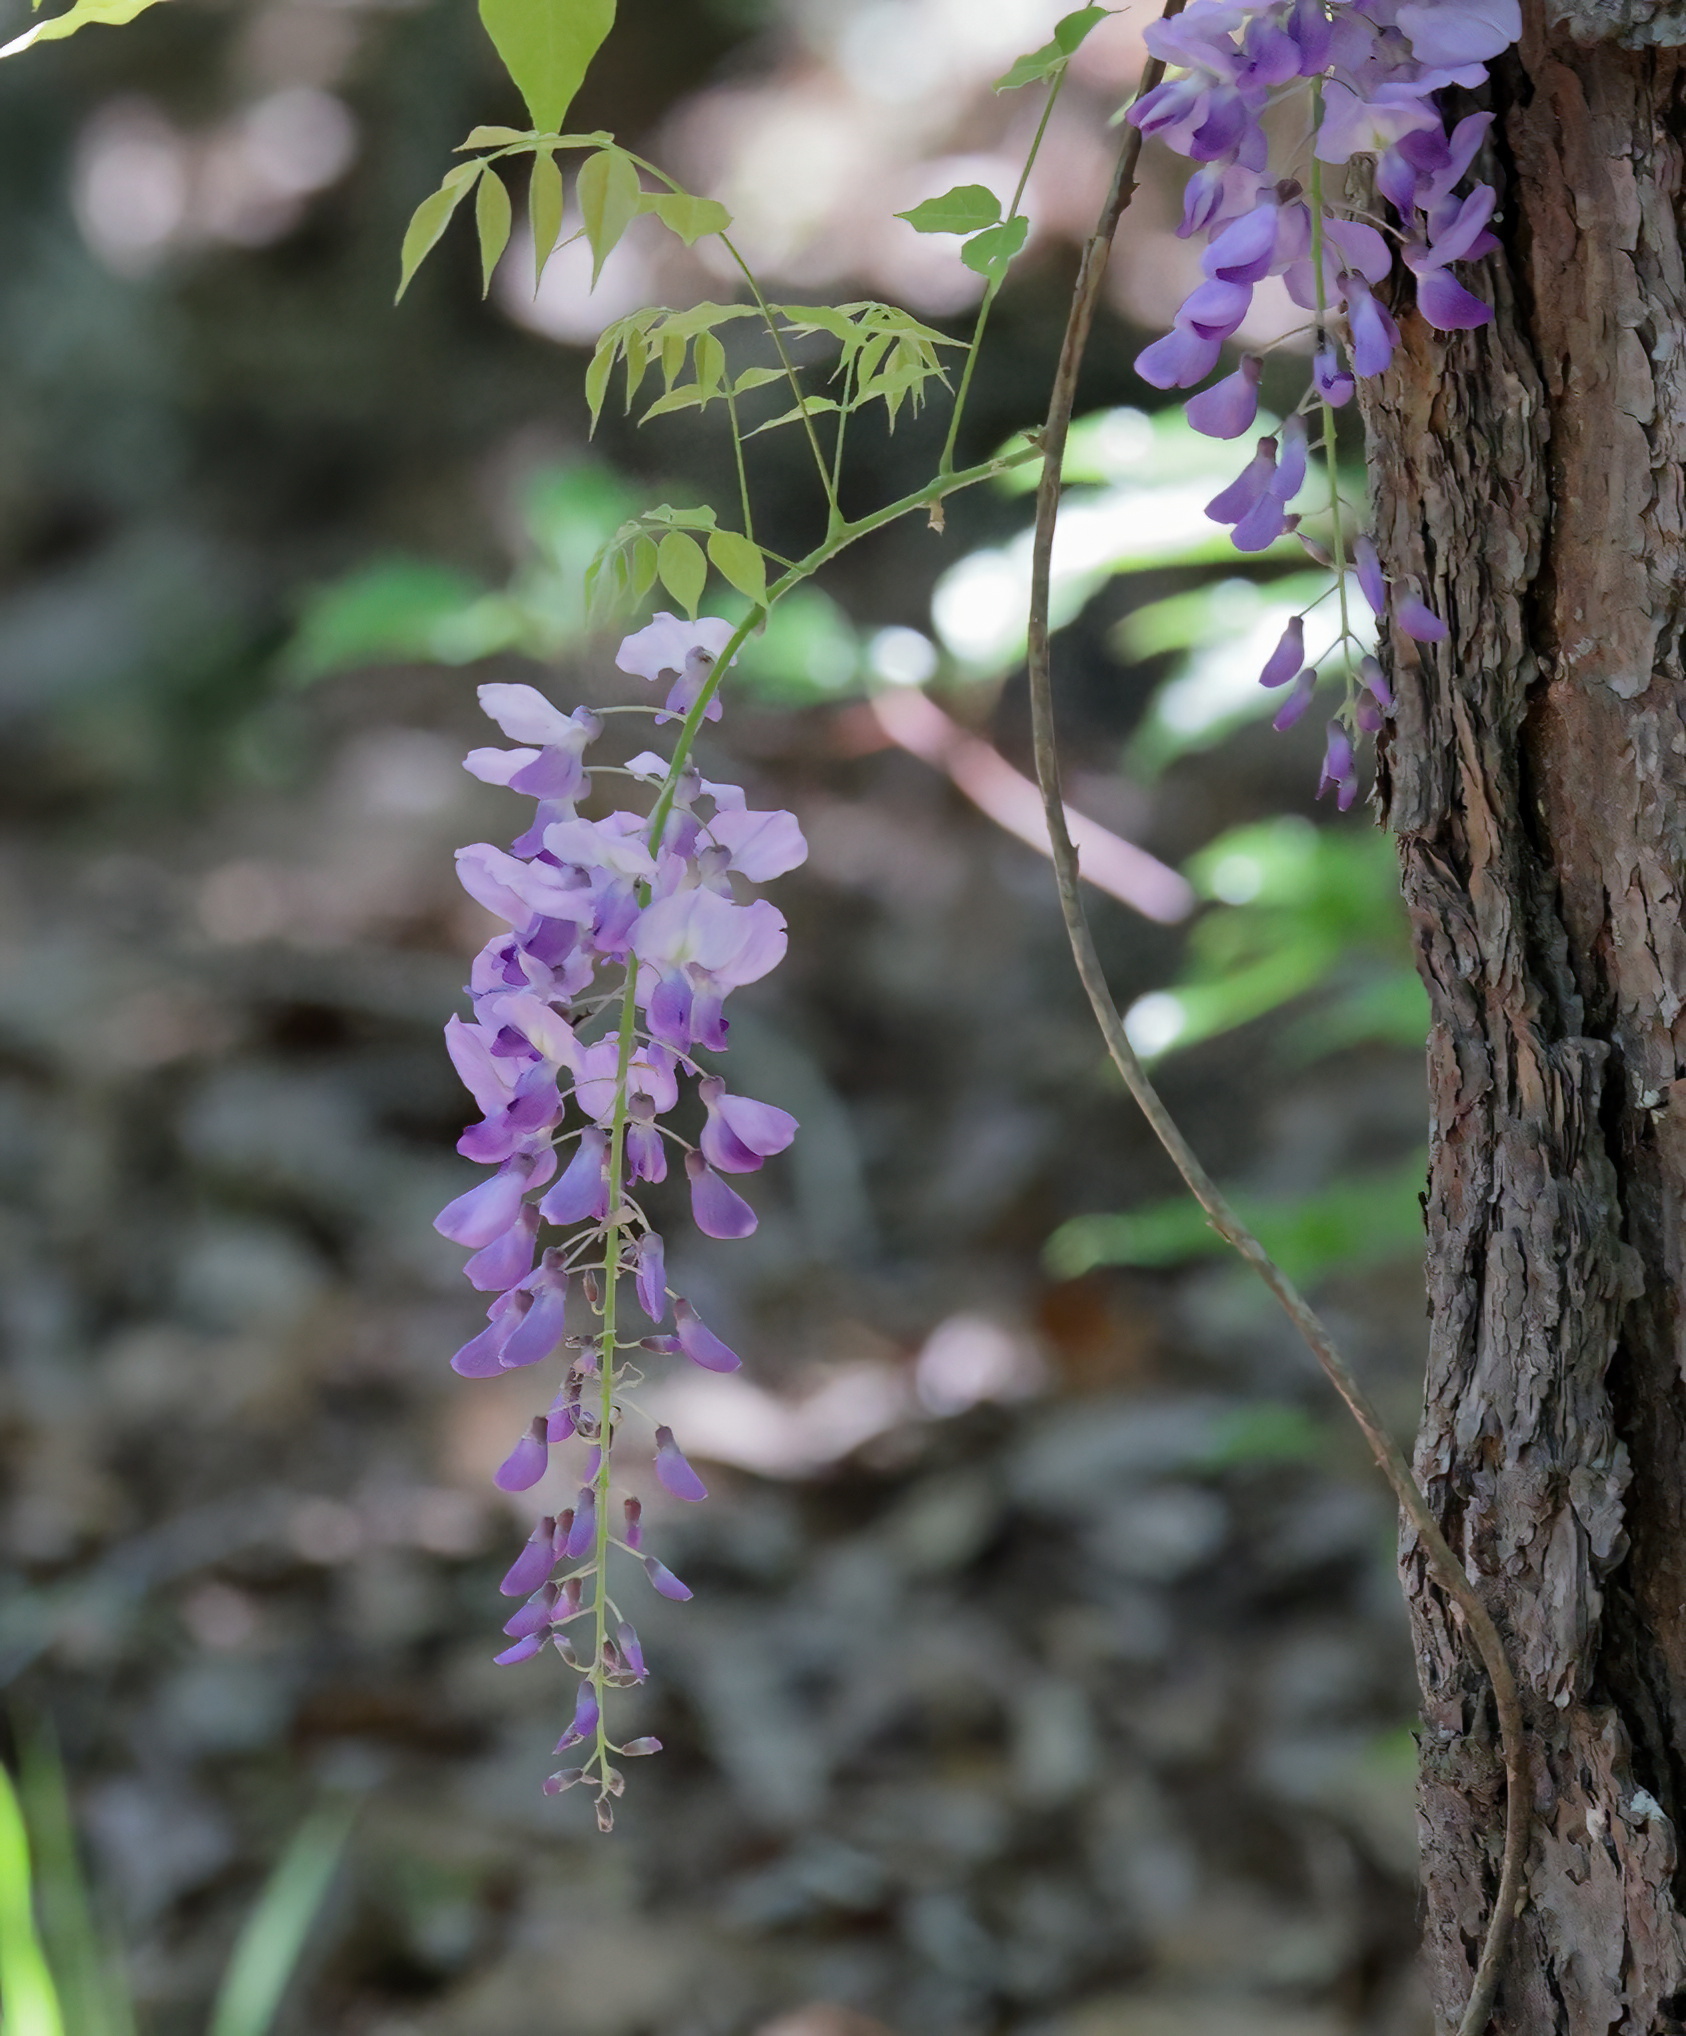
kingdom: Plantae
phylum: Tracheophyta
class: Magnoliopsida
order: Fabales
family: Fabaceae
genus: Wisteria
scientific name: Wisteria sinensis
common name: Chinese wisteria
